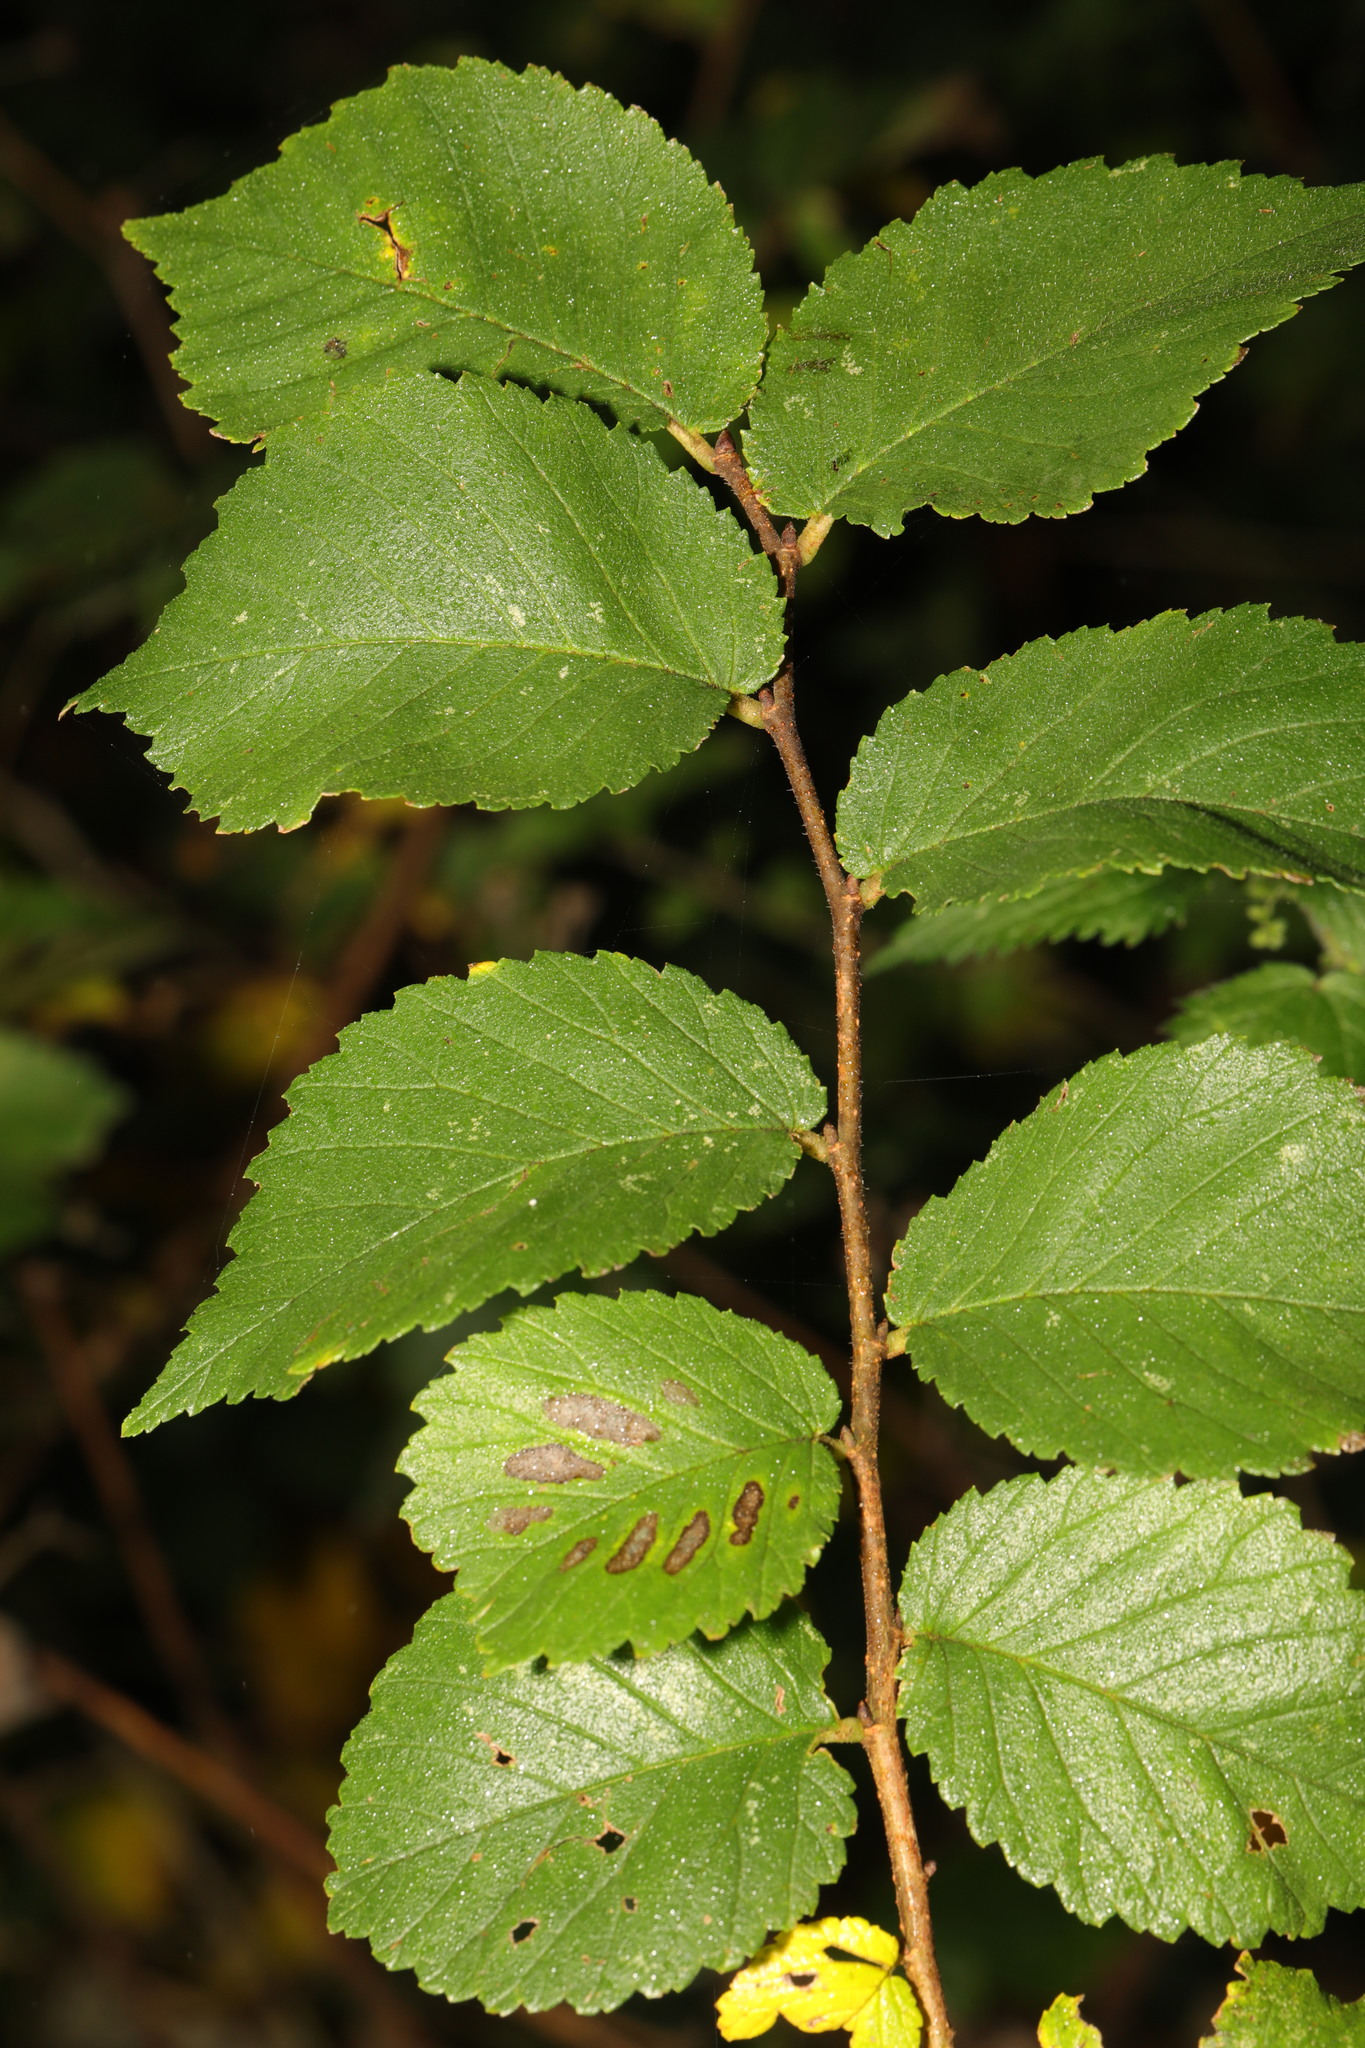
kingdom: Plantae
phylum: Tracheophyta
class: Magnoliopsida
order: Rosales
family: Ulmaceae
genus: Ulmus
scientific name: Ulmus minor
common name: Small-leaved elm
